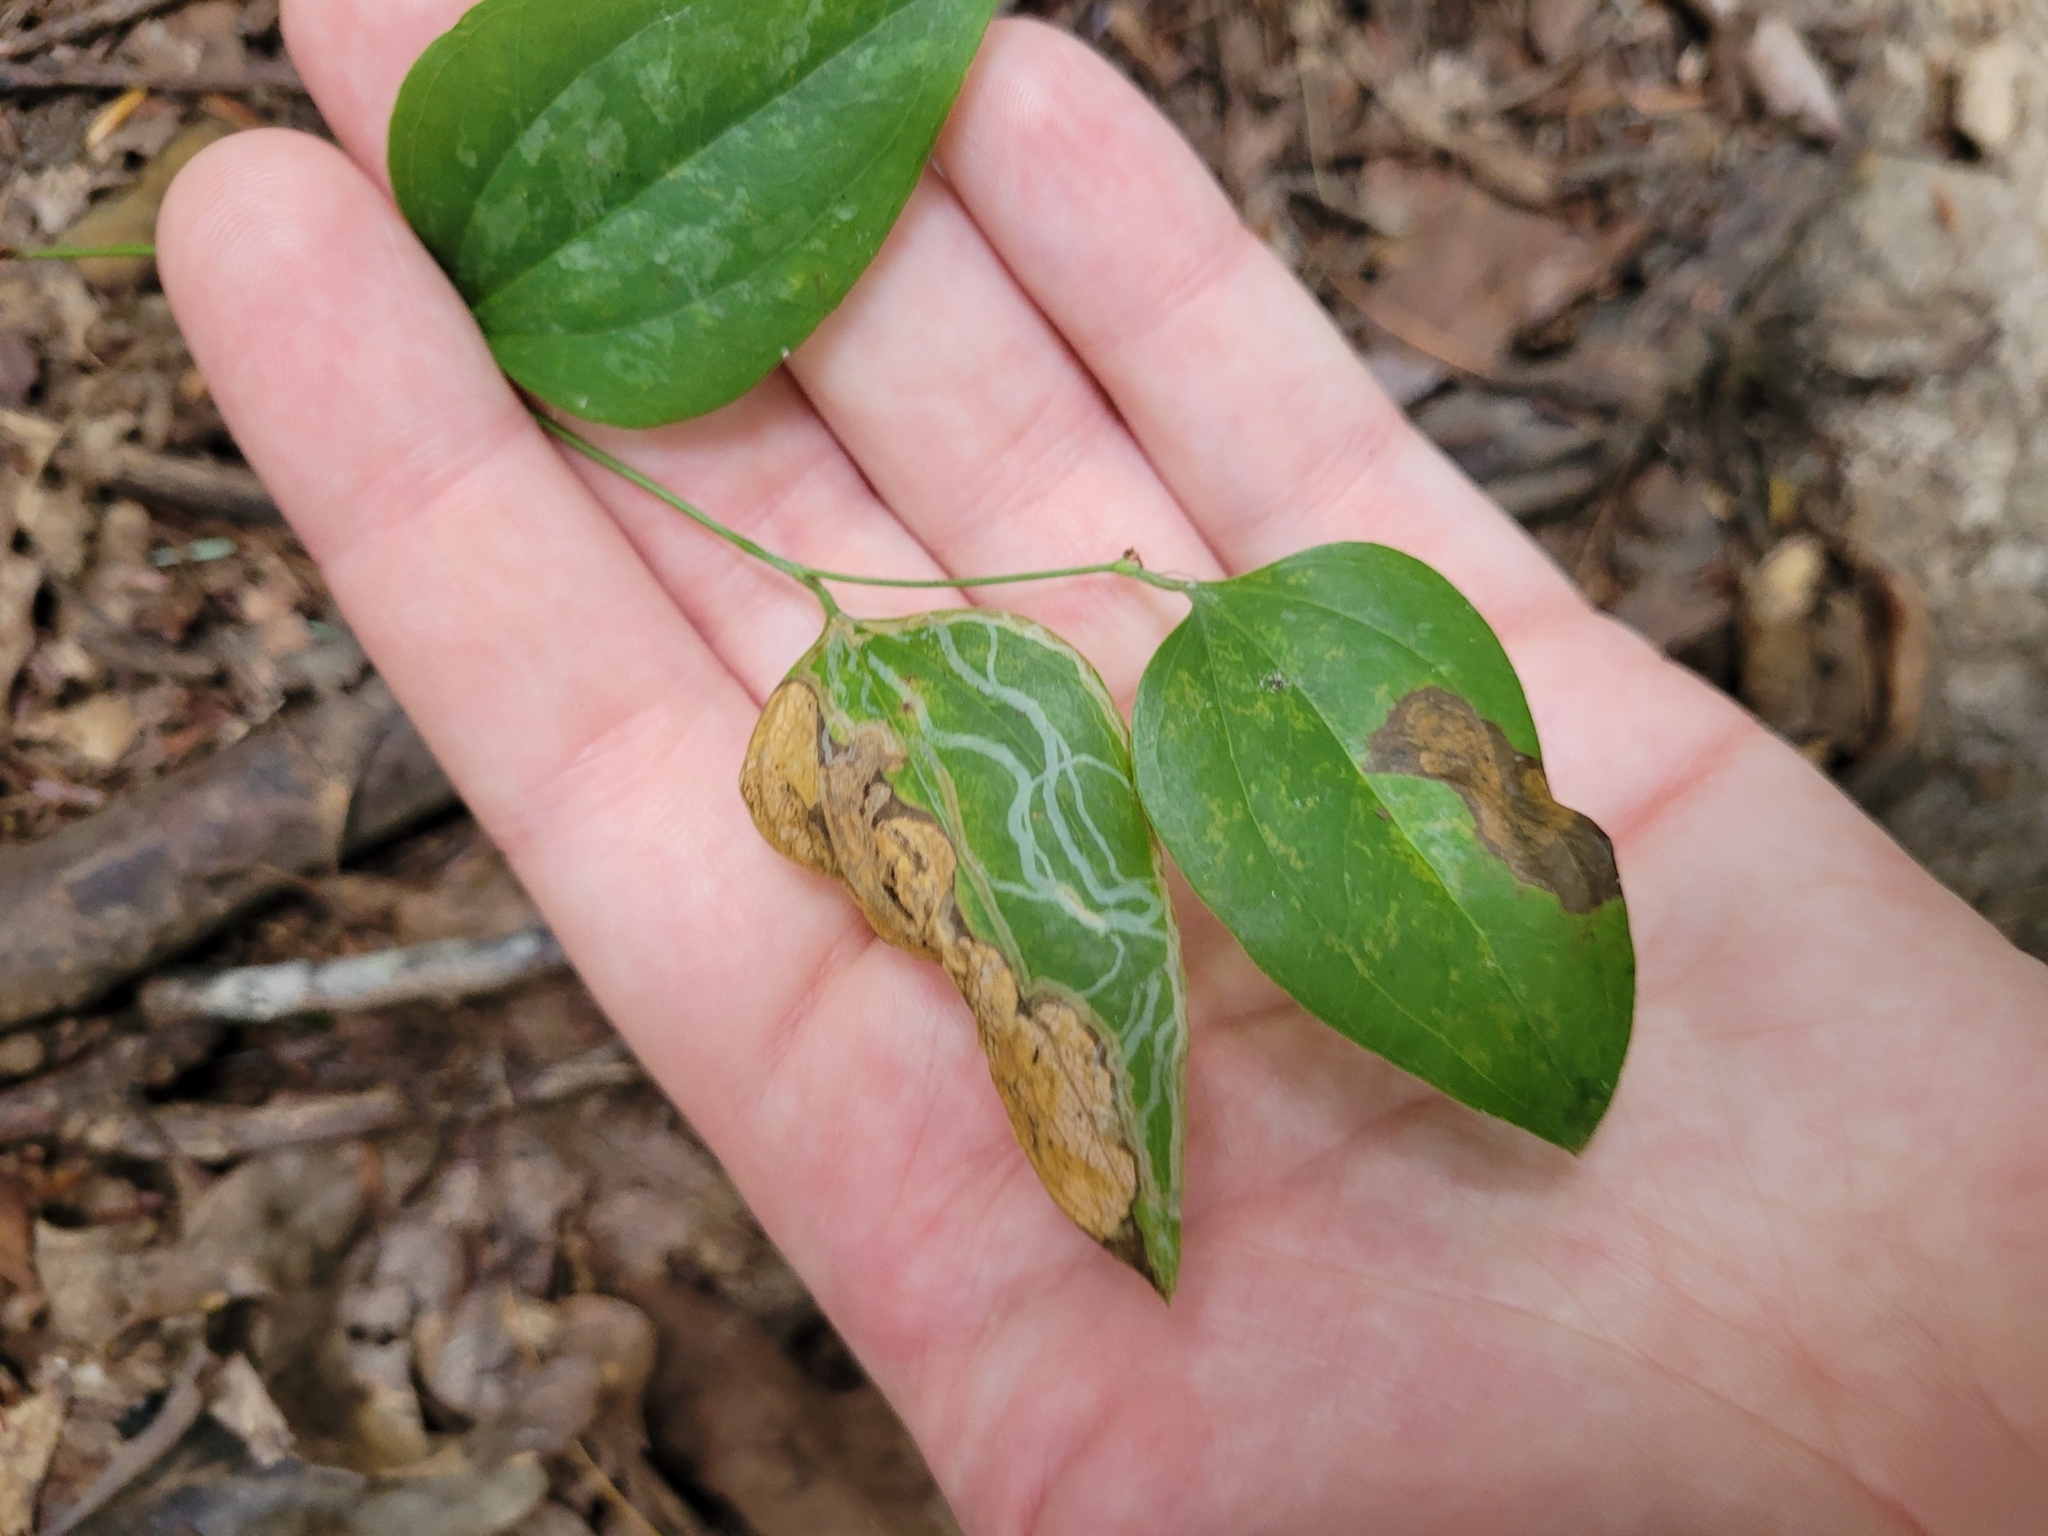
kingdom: Animalia
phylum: Arthropoda
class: Insecta
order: Lepidoptera
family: Gracillariidae
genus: Marmara
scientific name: Marmara smilacisella
